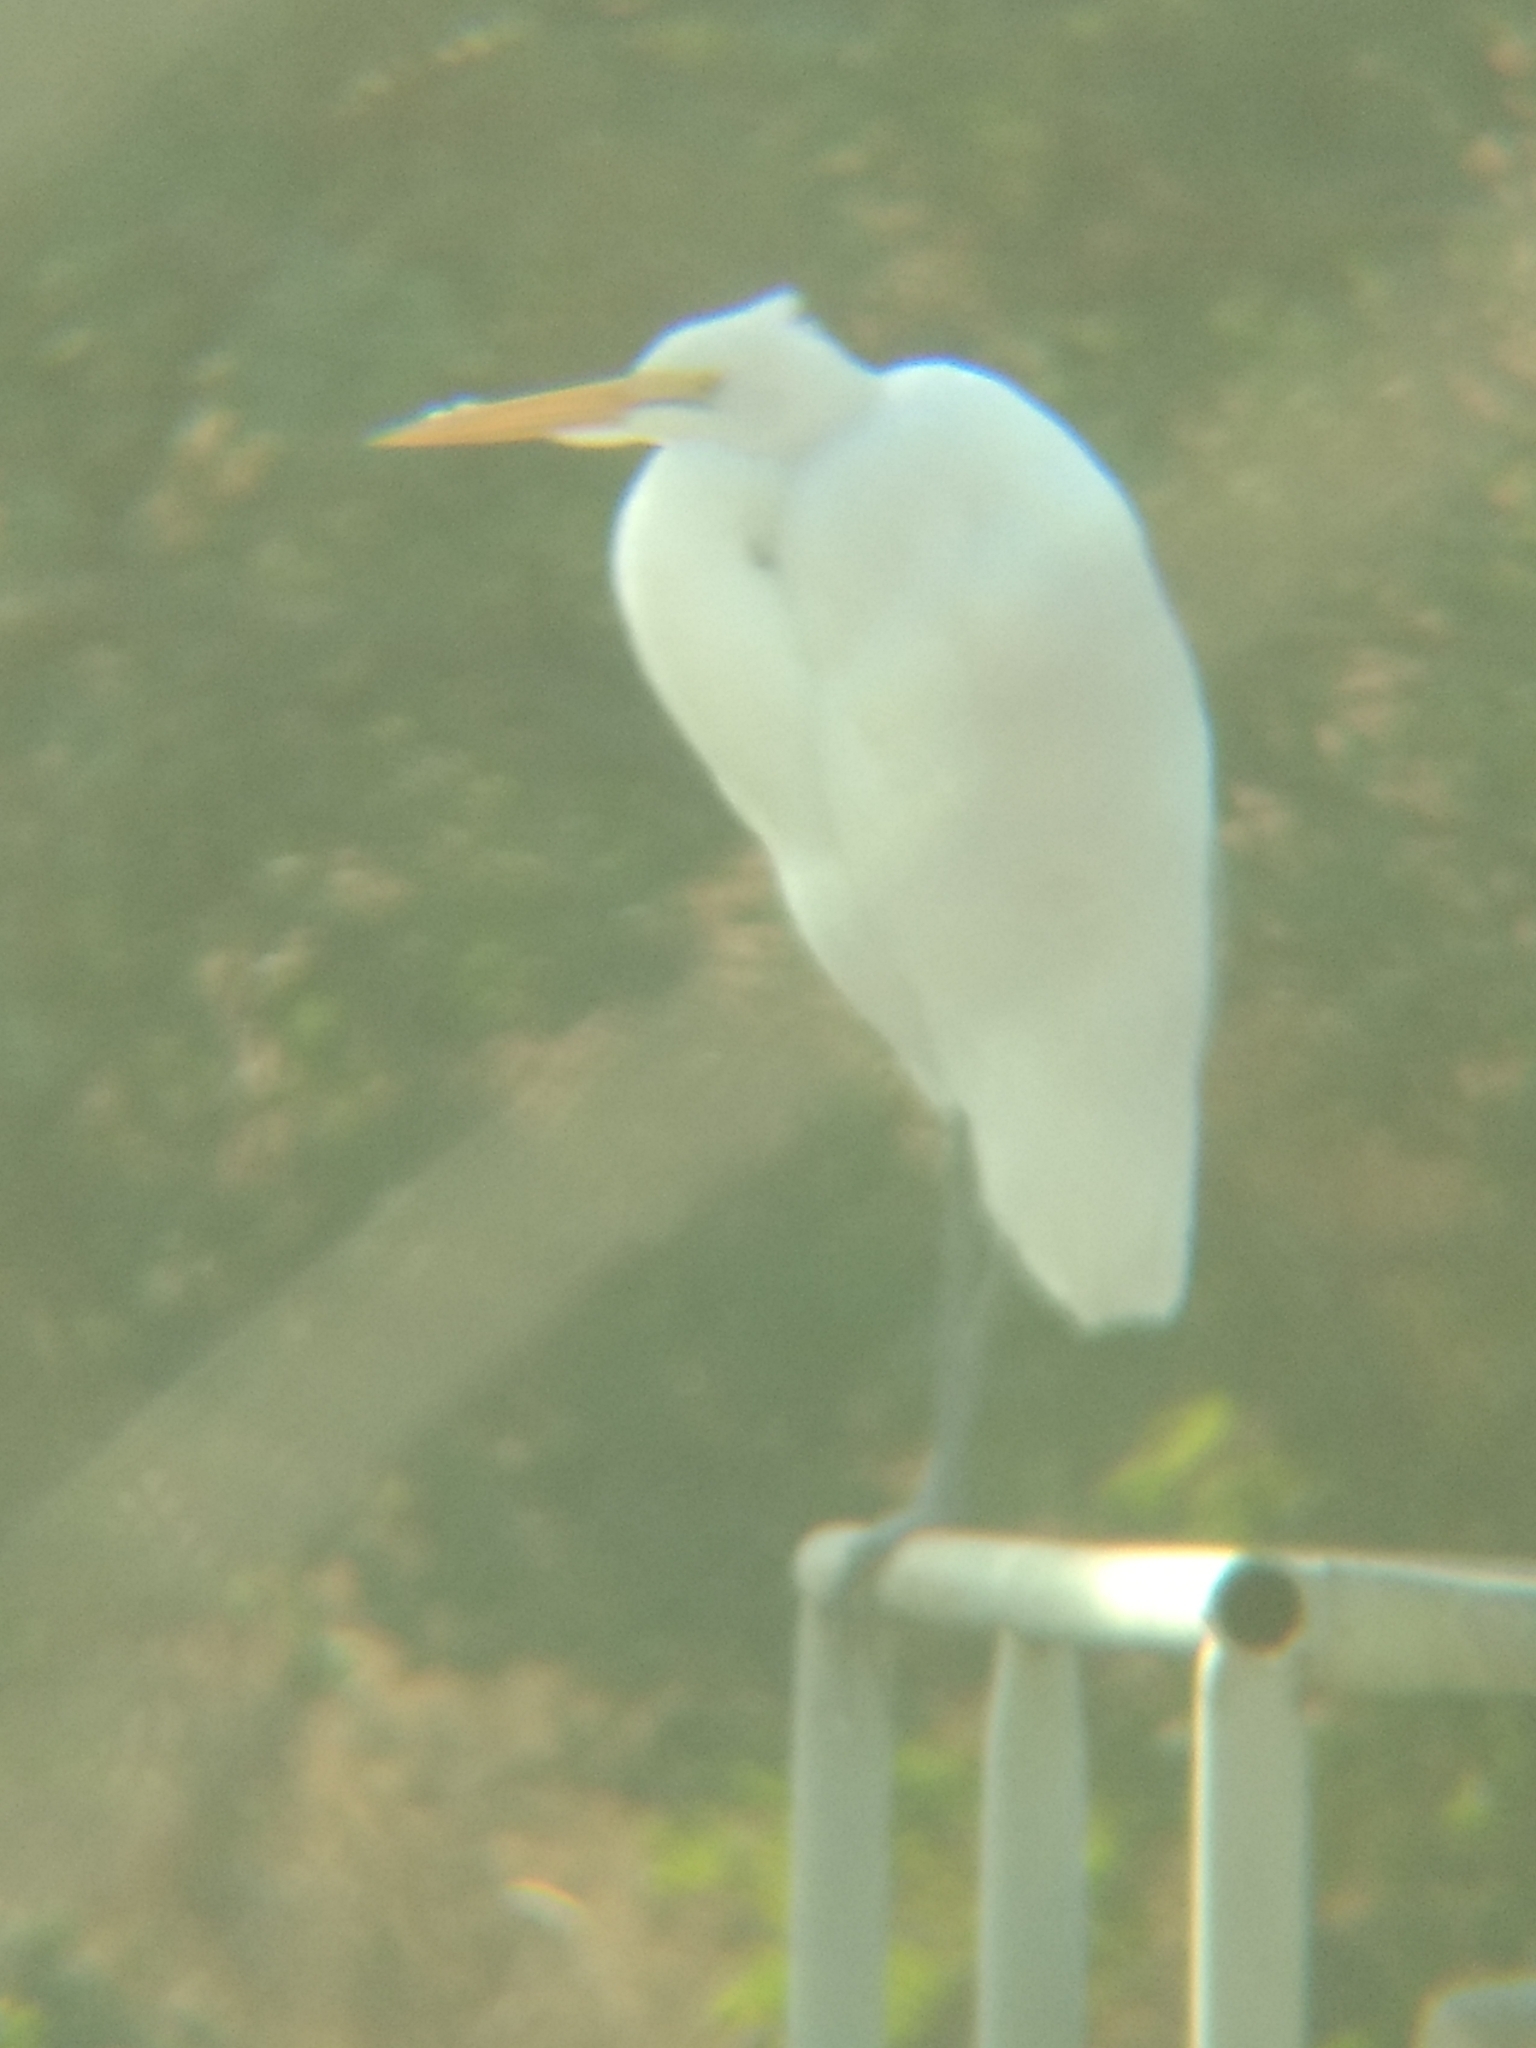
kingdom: Animalia
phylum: Chordata
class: Aves
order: Pelecaniformes
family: Ardeidae
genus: Ardea
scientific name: Ardea alba
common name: Great egret
